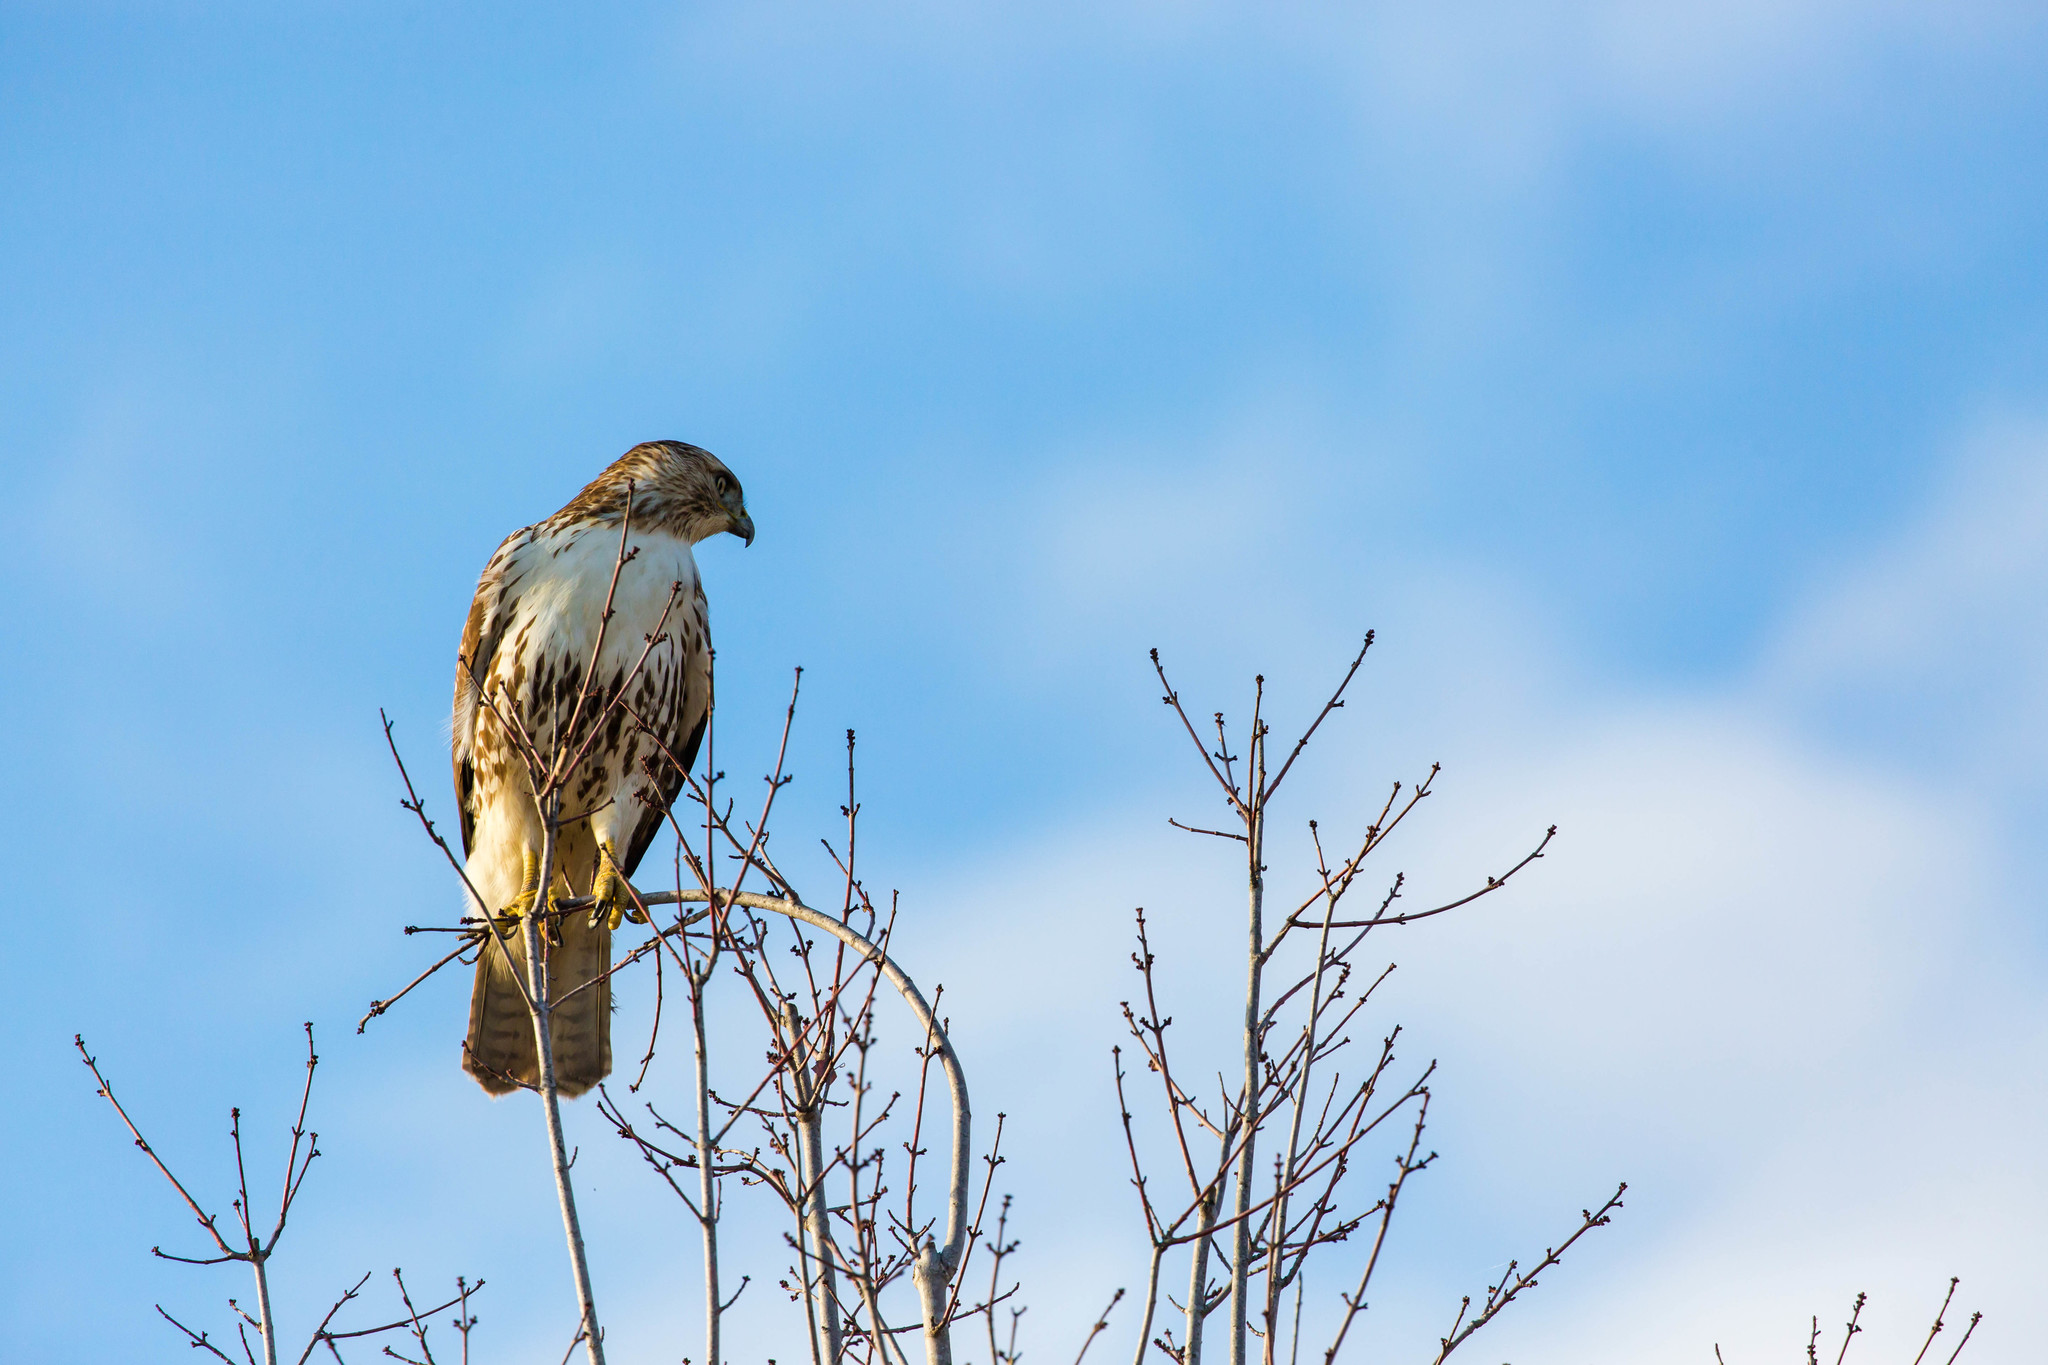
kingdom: Animalia
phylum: Chordata
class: Aves
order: Accipitriformes
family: Accipitridae
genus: Buteo
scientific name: Buteo jamaicensis
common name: Red-tailed hawk
